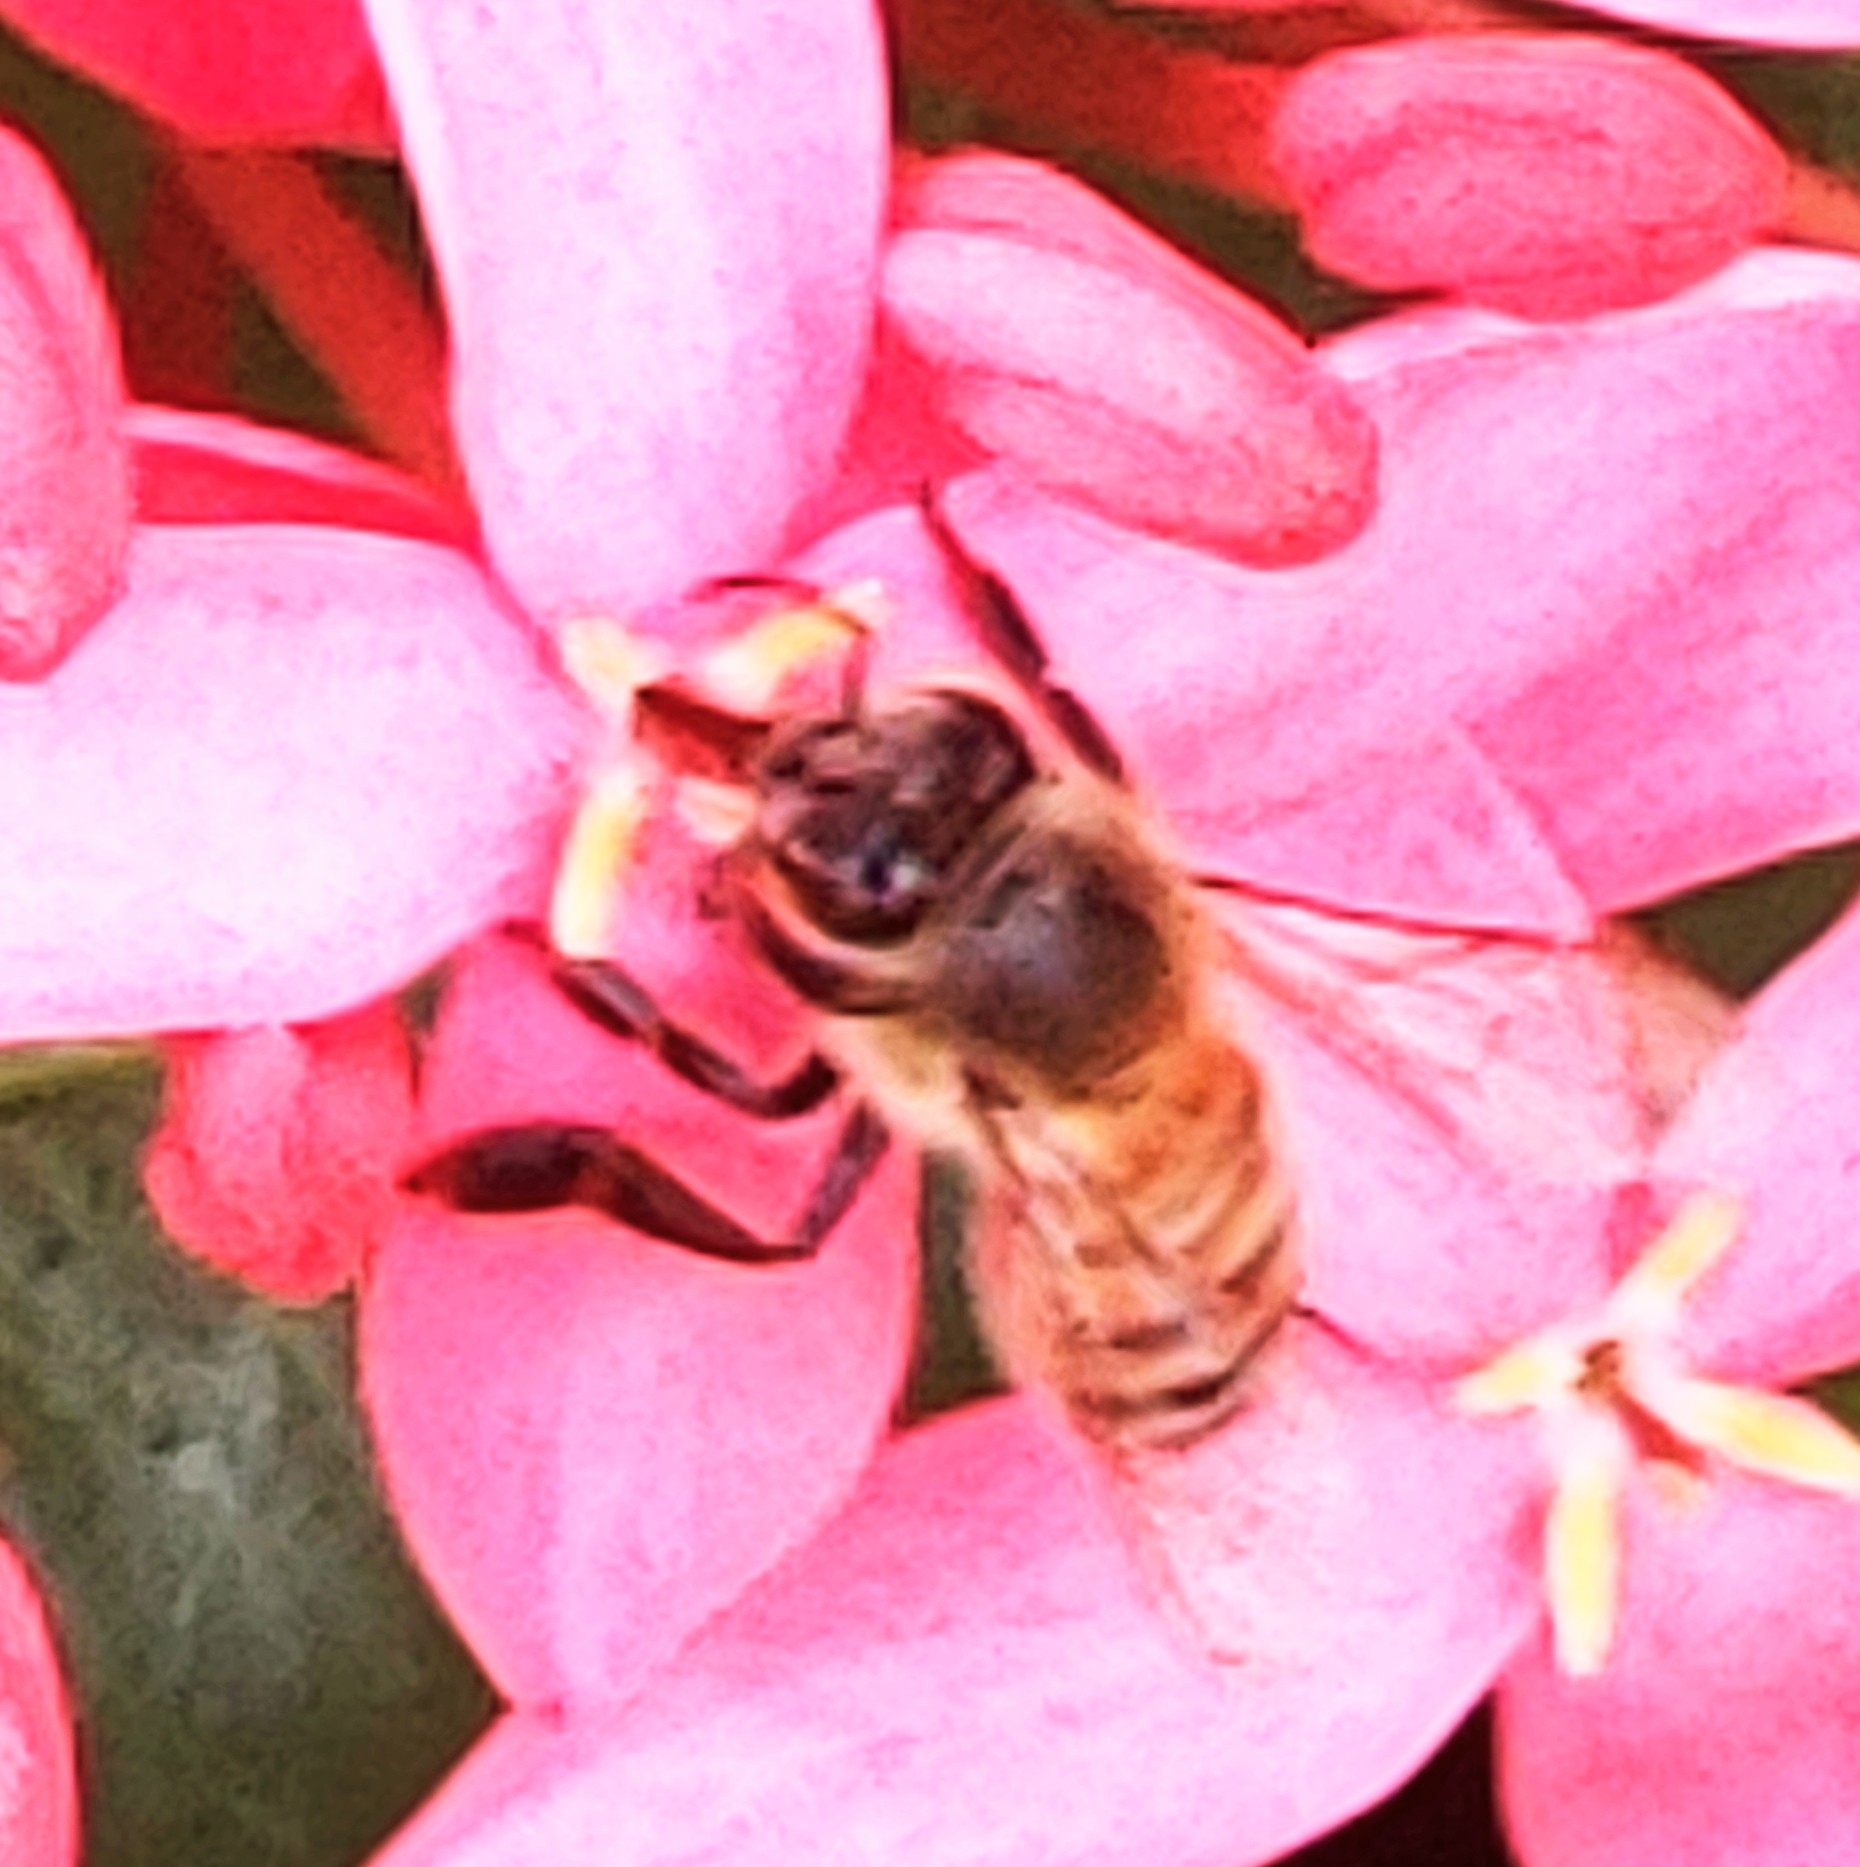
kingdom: Animalia
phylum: Arthropoda
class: Insecta
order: Hymenoptera
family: Apidae
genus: Apis
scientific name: Apis mellifera
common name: Honey bee
